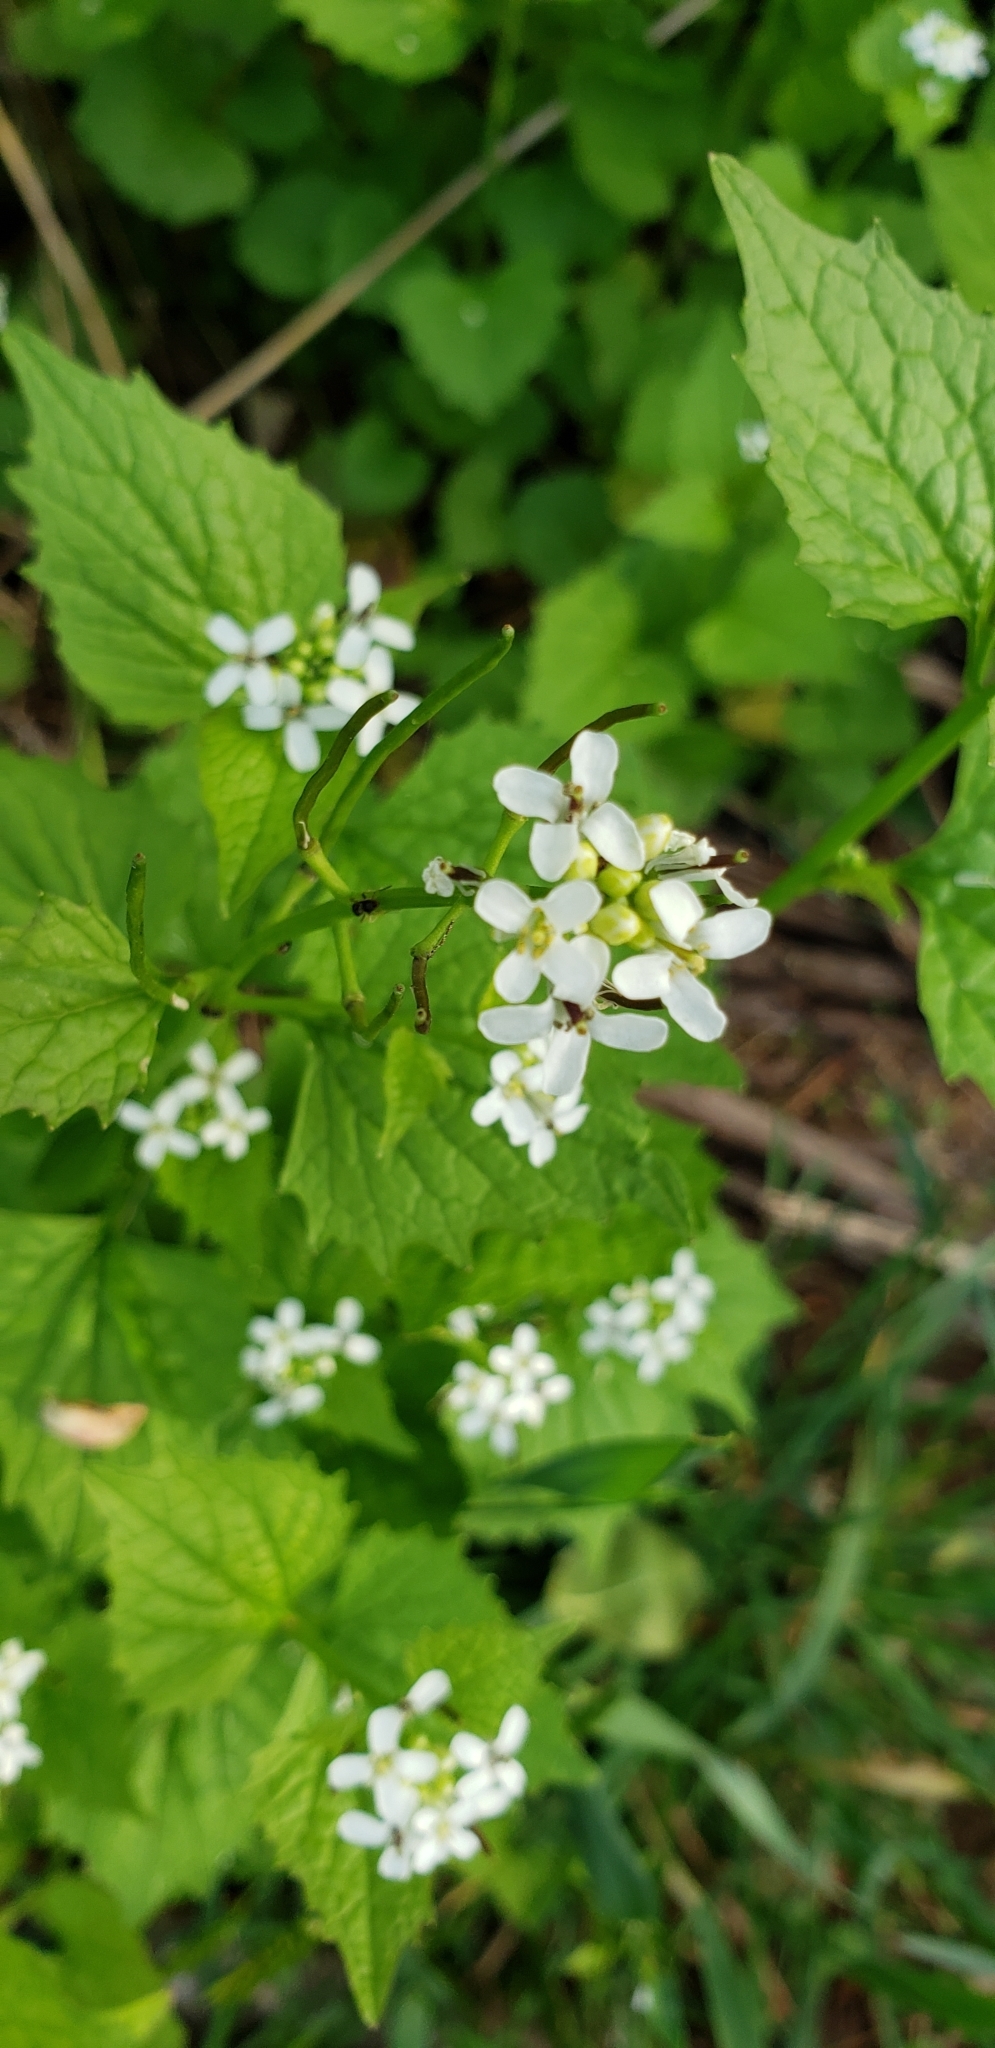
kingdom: Plantae
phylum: Tracheophyta
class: Magnoliopsida
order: Brassicales
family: Brassicaceae
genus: Alliaria
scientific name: Alliaria petiolata
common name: Garlic mustard
